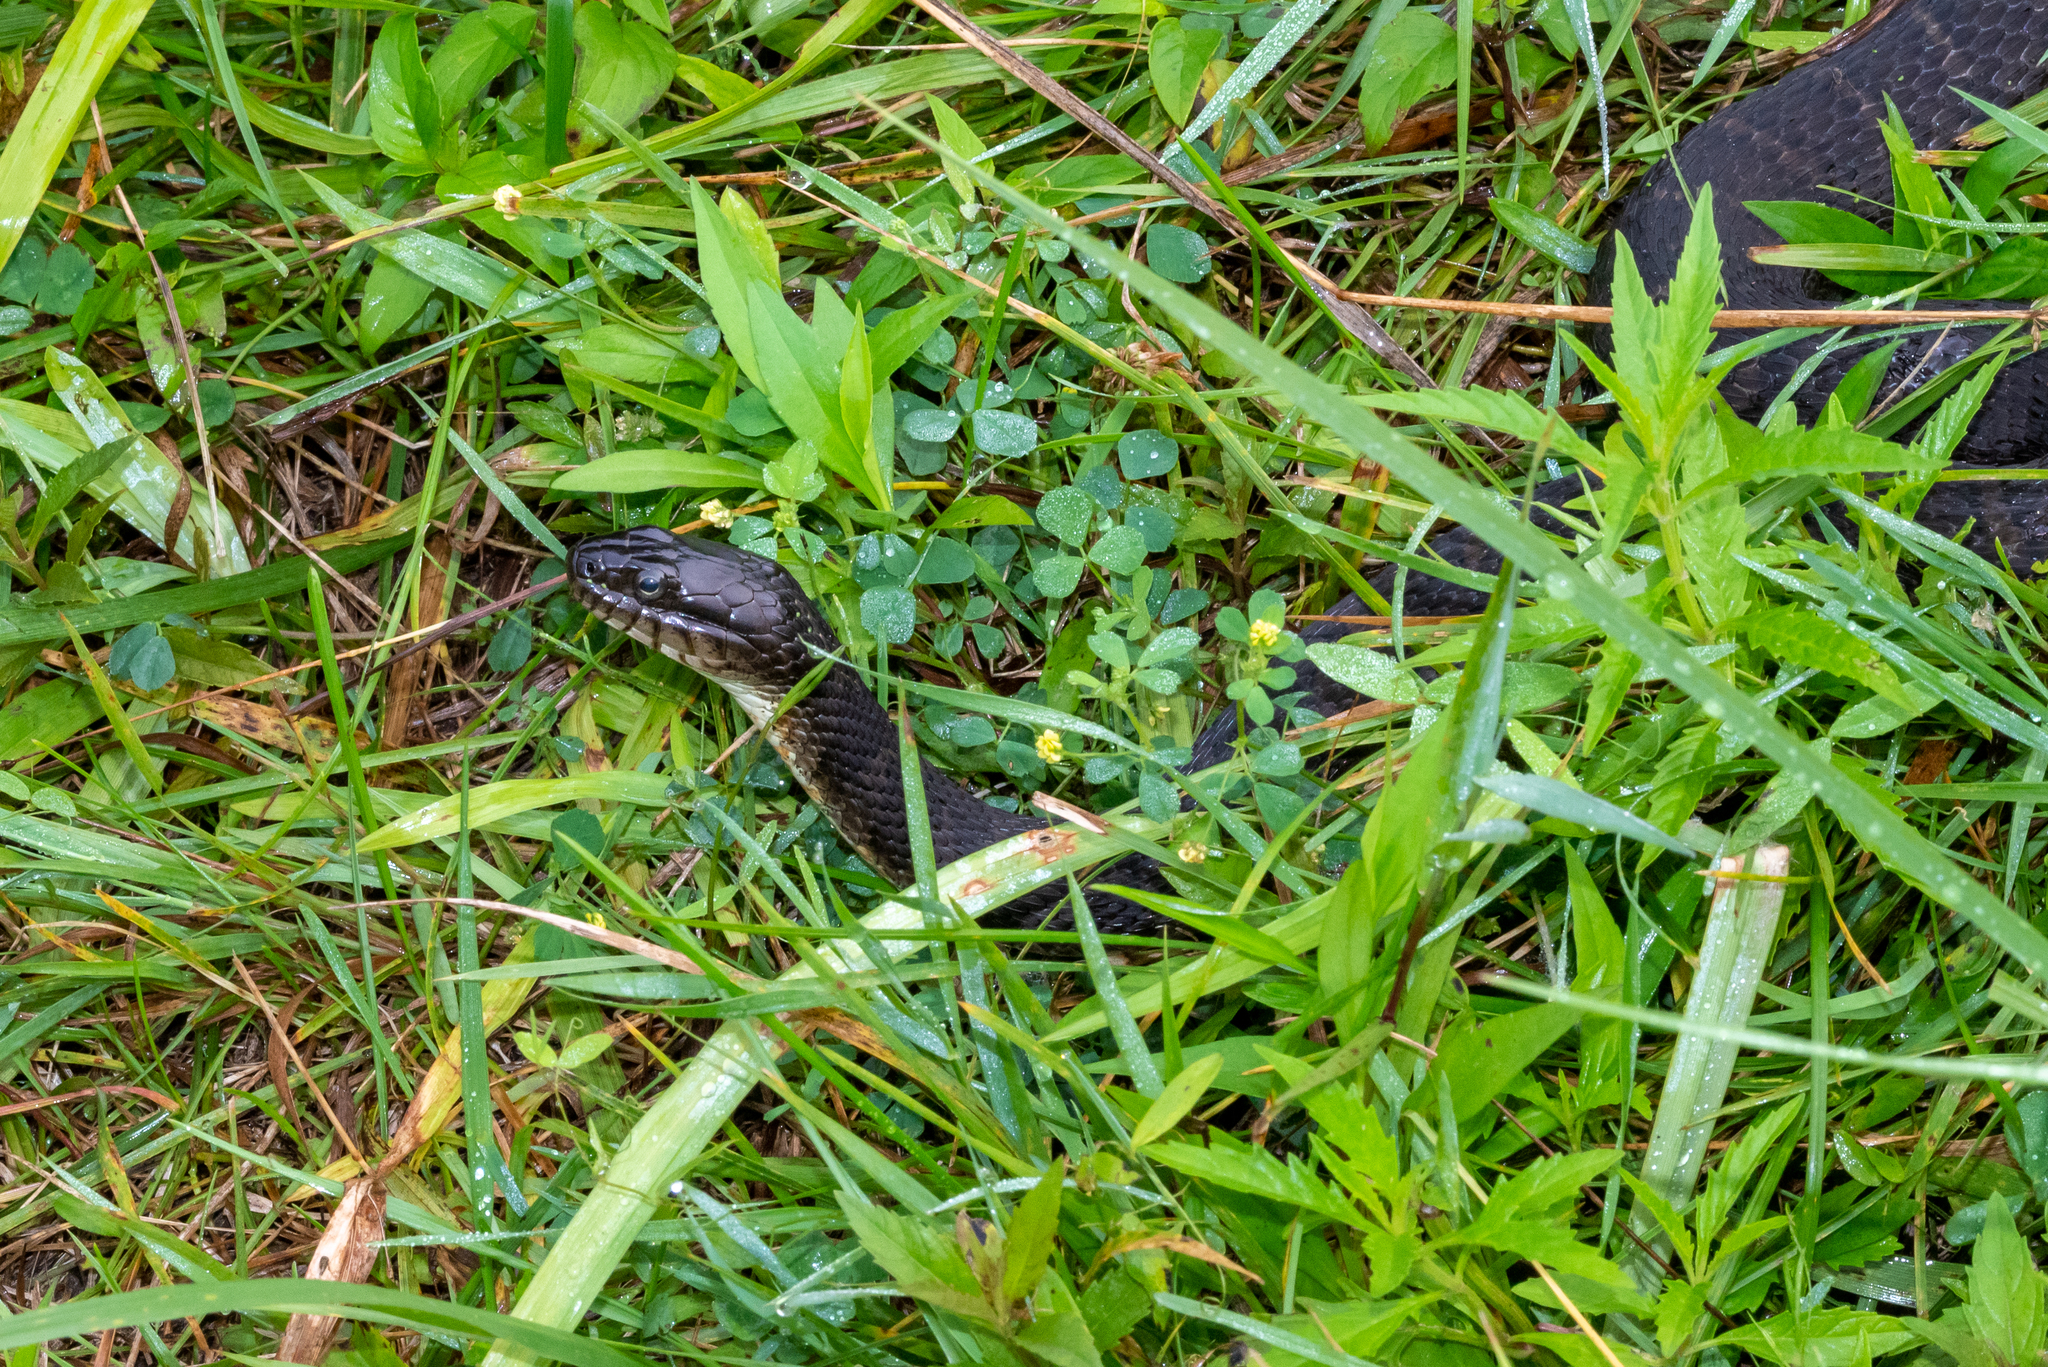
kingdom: Animalia
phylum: Chordata
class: Squamata
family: Colubridae
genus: Nerodia
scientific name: Nerodia sipedon
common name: Northern water snake
